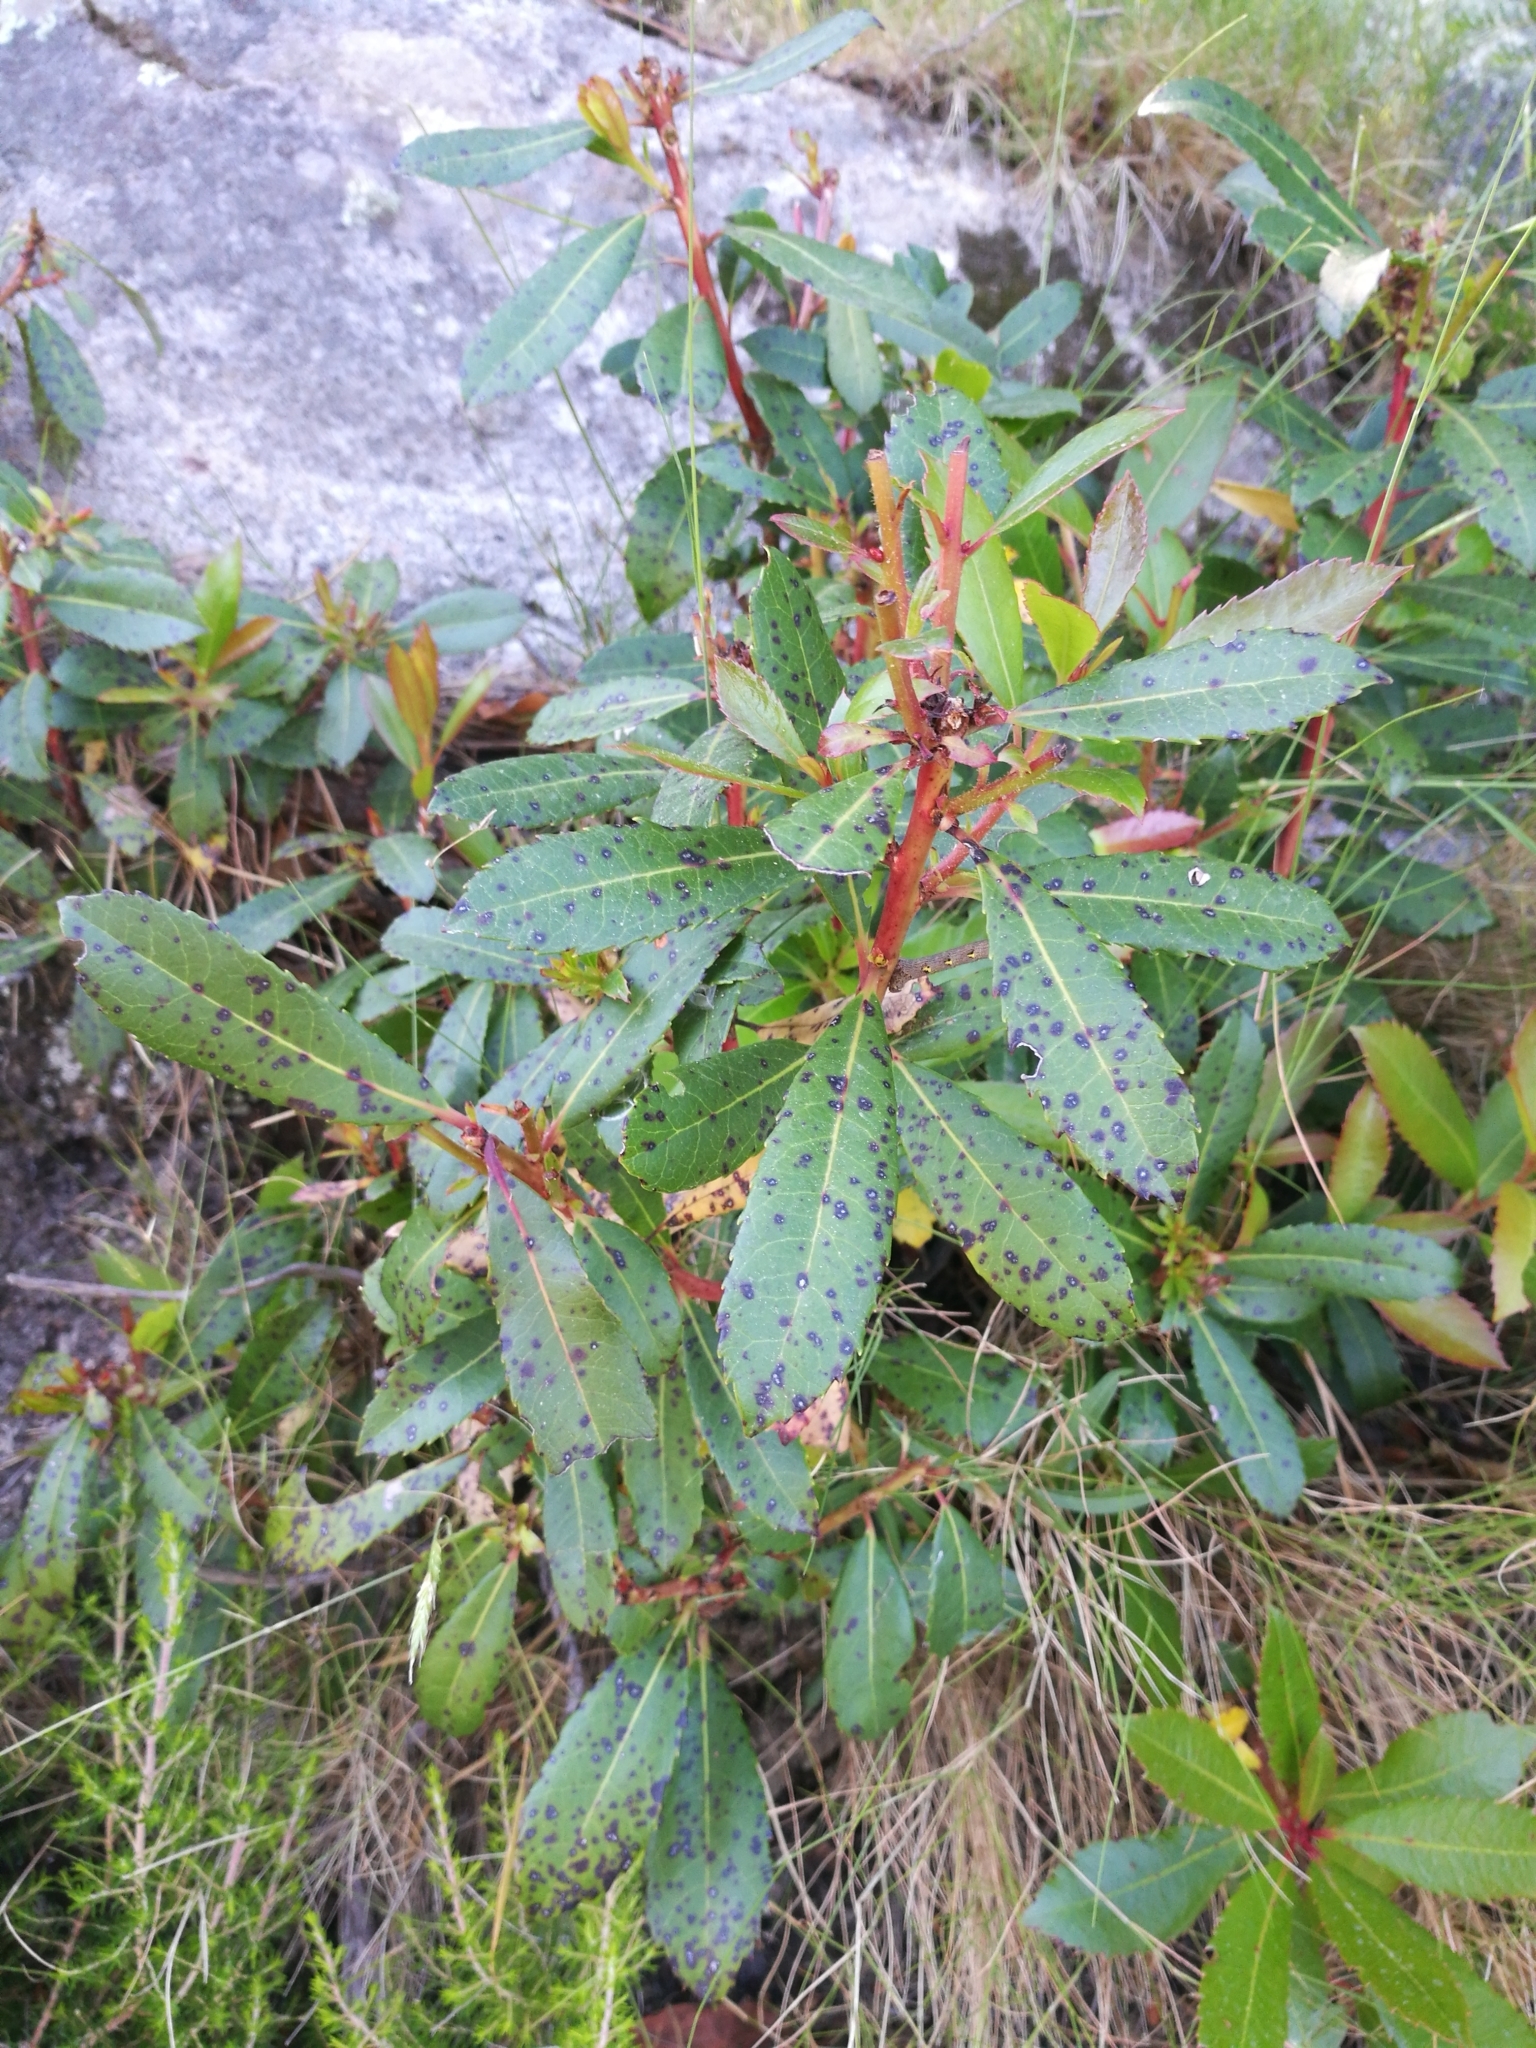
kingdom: Plantae
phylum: Tracheophyta
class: Magnoliopsida
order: Ericales
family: Ericaceae
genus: Arbutus
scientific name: Arbutus unedo
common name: Strawberry-tree
